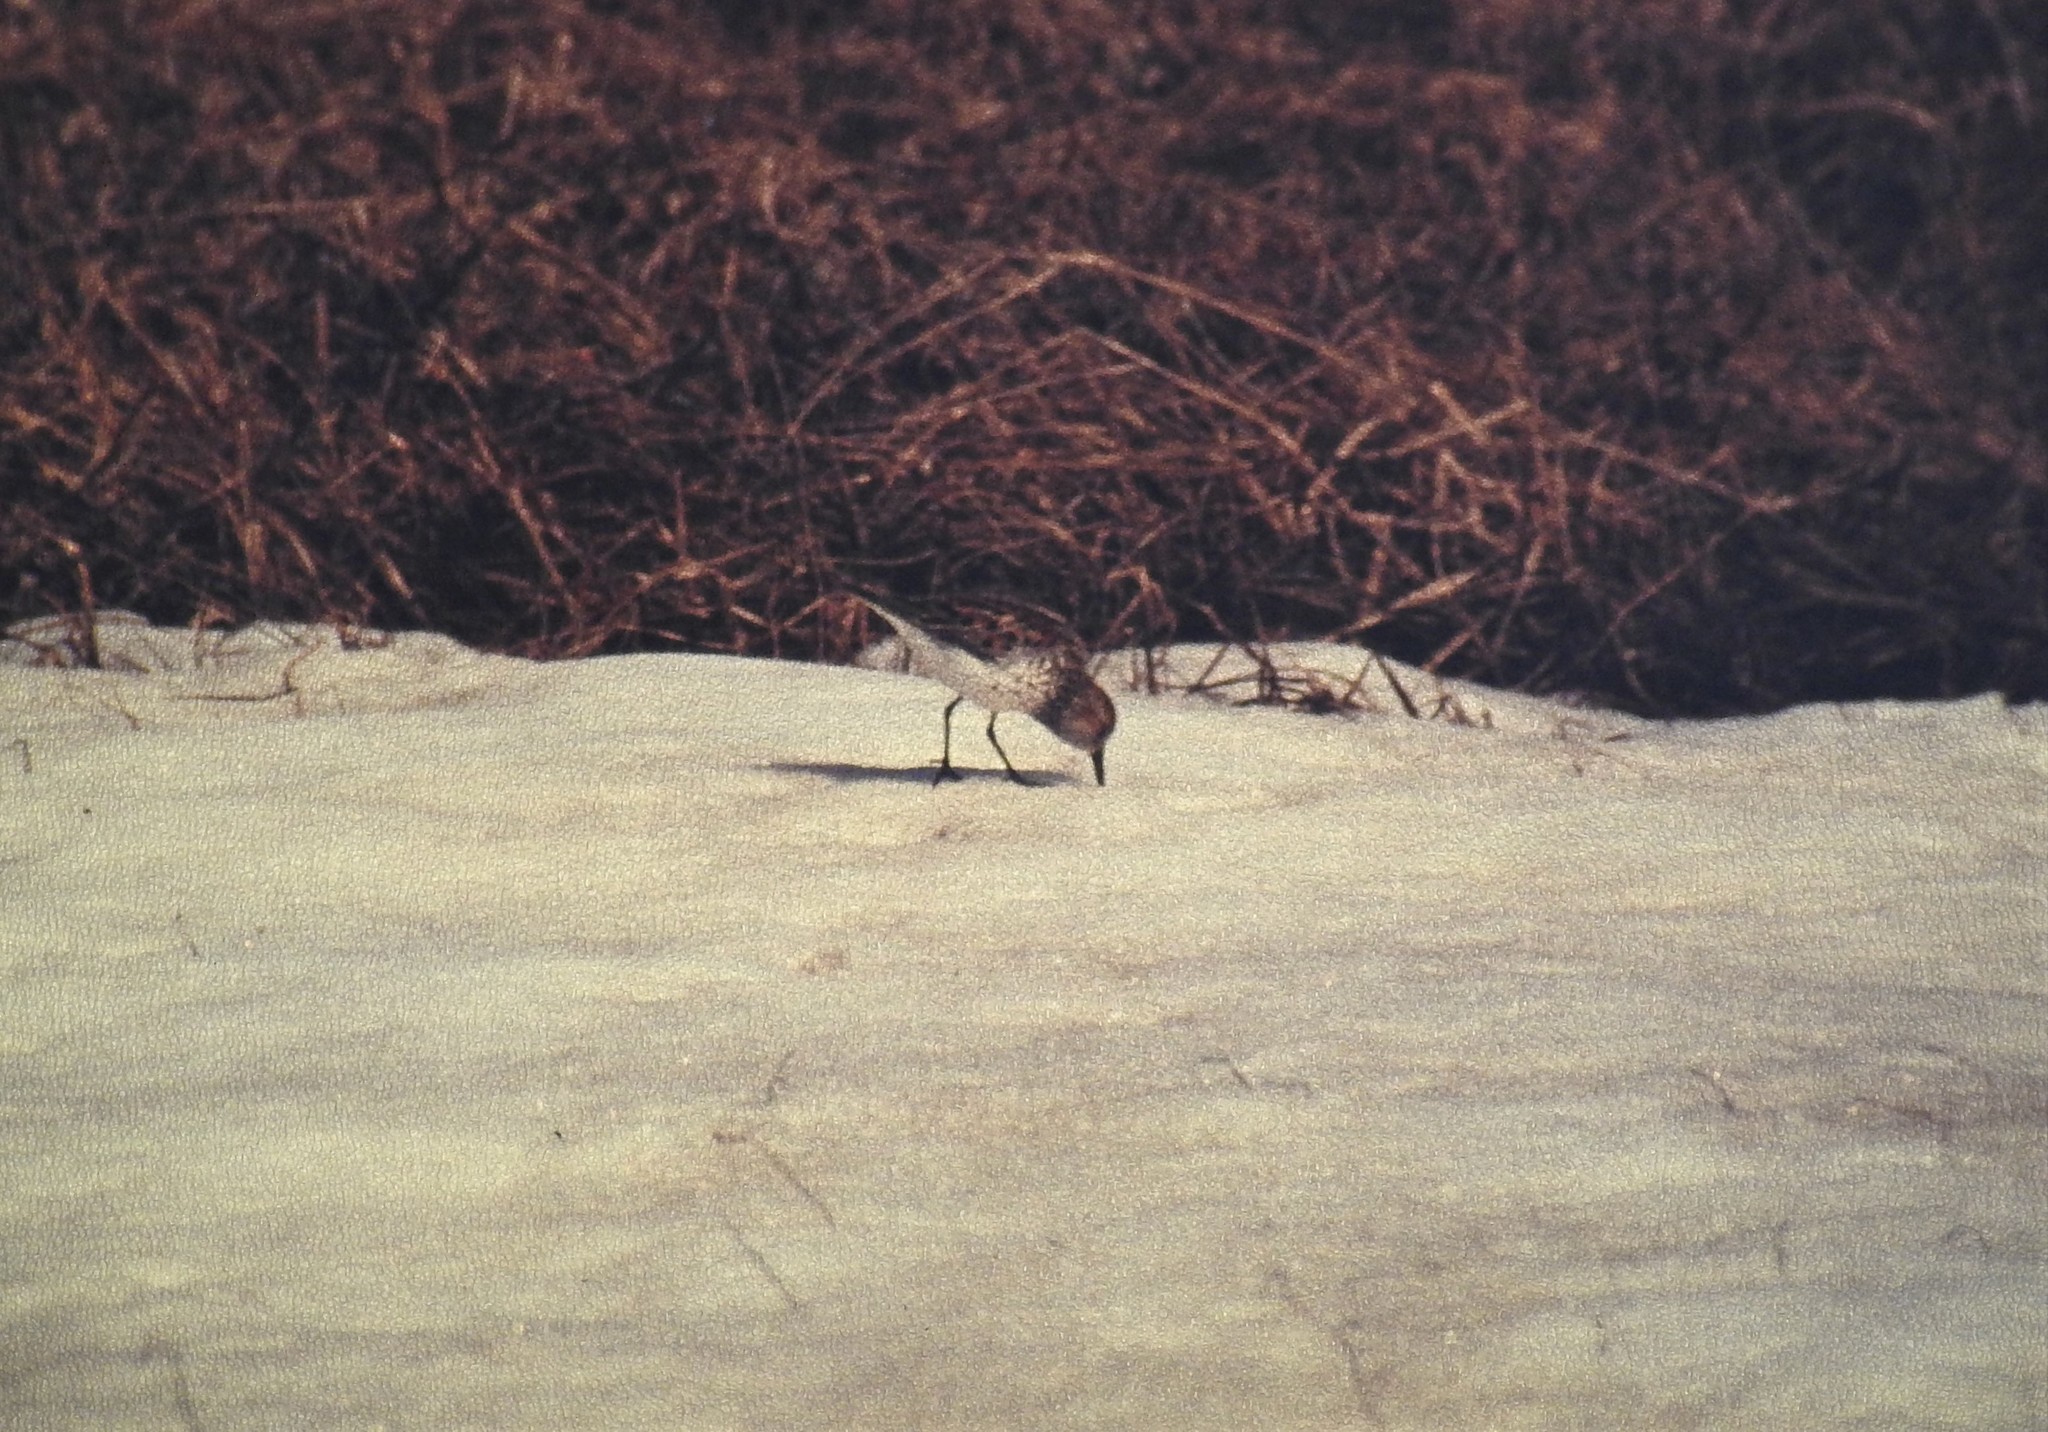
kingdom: Animalia
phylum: Chordata
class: Aves
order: Charadriiformes
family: Scolopacidae
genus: Calidris
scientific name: Calidris mauri
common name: Western sandpiper
